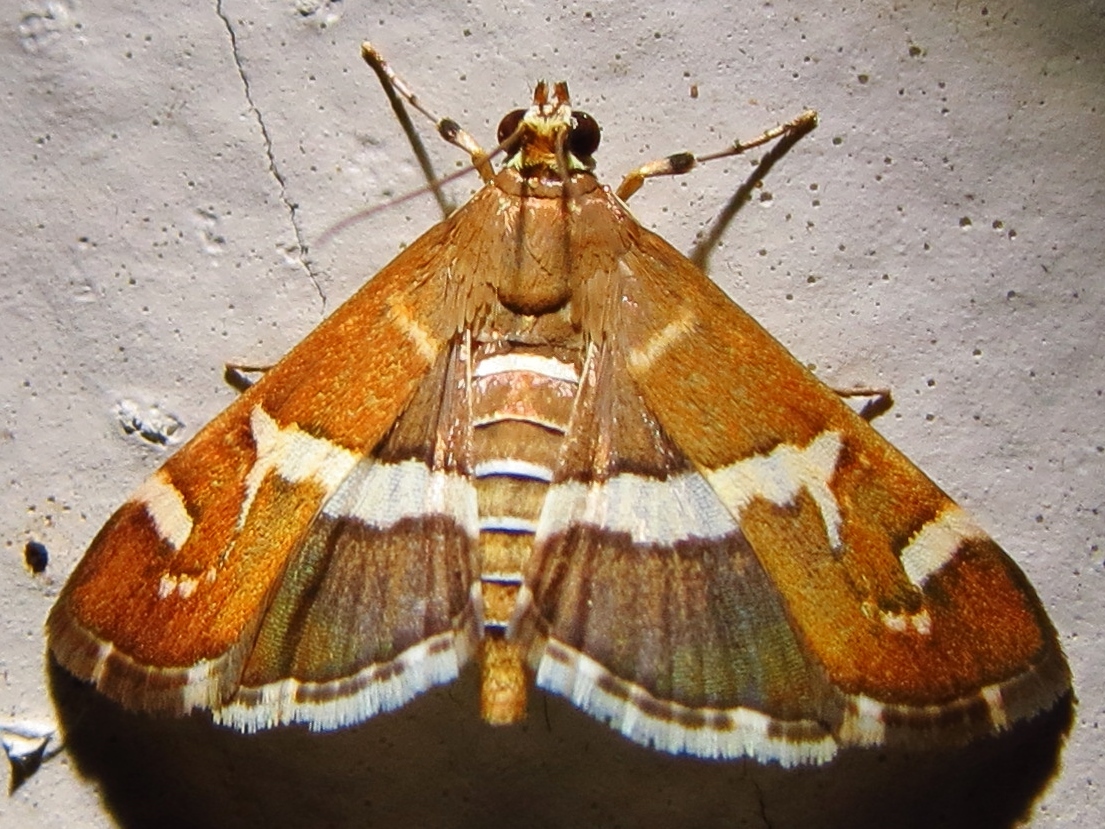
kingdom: Animalia
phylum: Arthropoda
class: Insecta
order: Lepidoptera
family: Crambidae
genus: Spoladea
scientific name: Spoladea recurvalis
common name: Beet webworm moth
